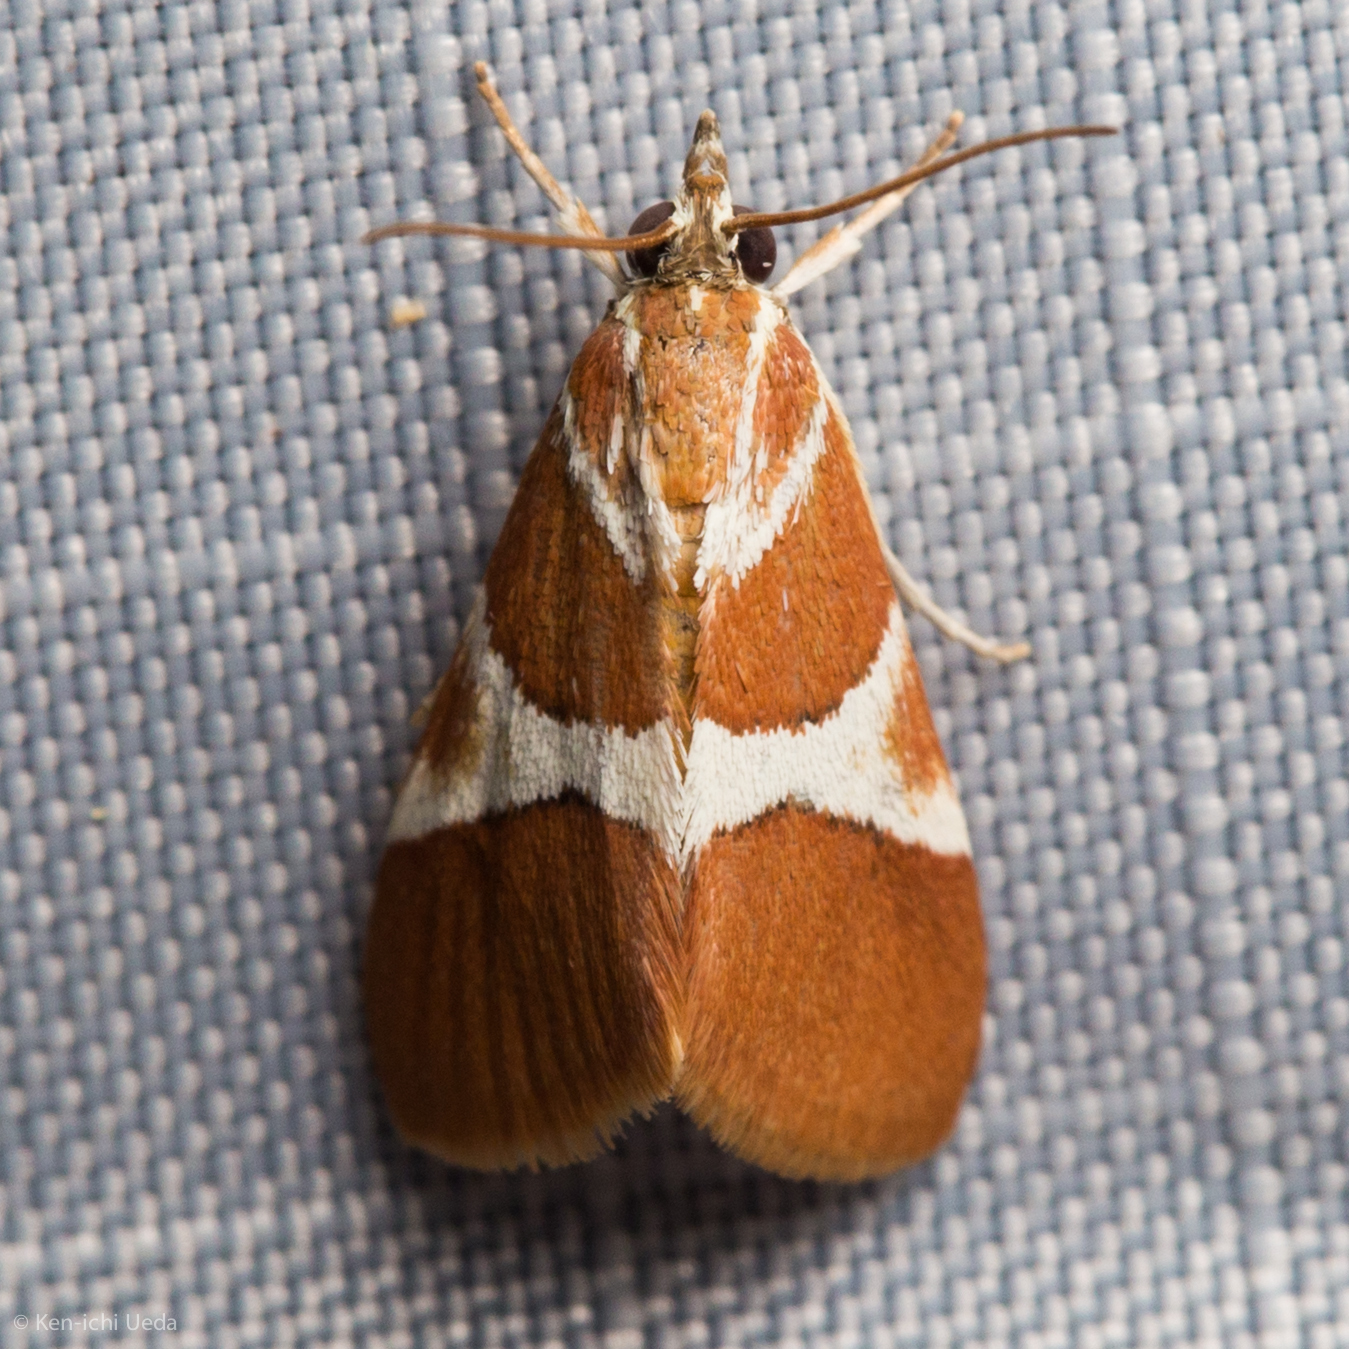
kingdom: Animalia
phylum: Arthropoda
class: Insecta
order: Lepidoptera
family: Crambidae
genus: Jativa
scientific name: Jativa castanealis
